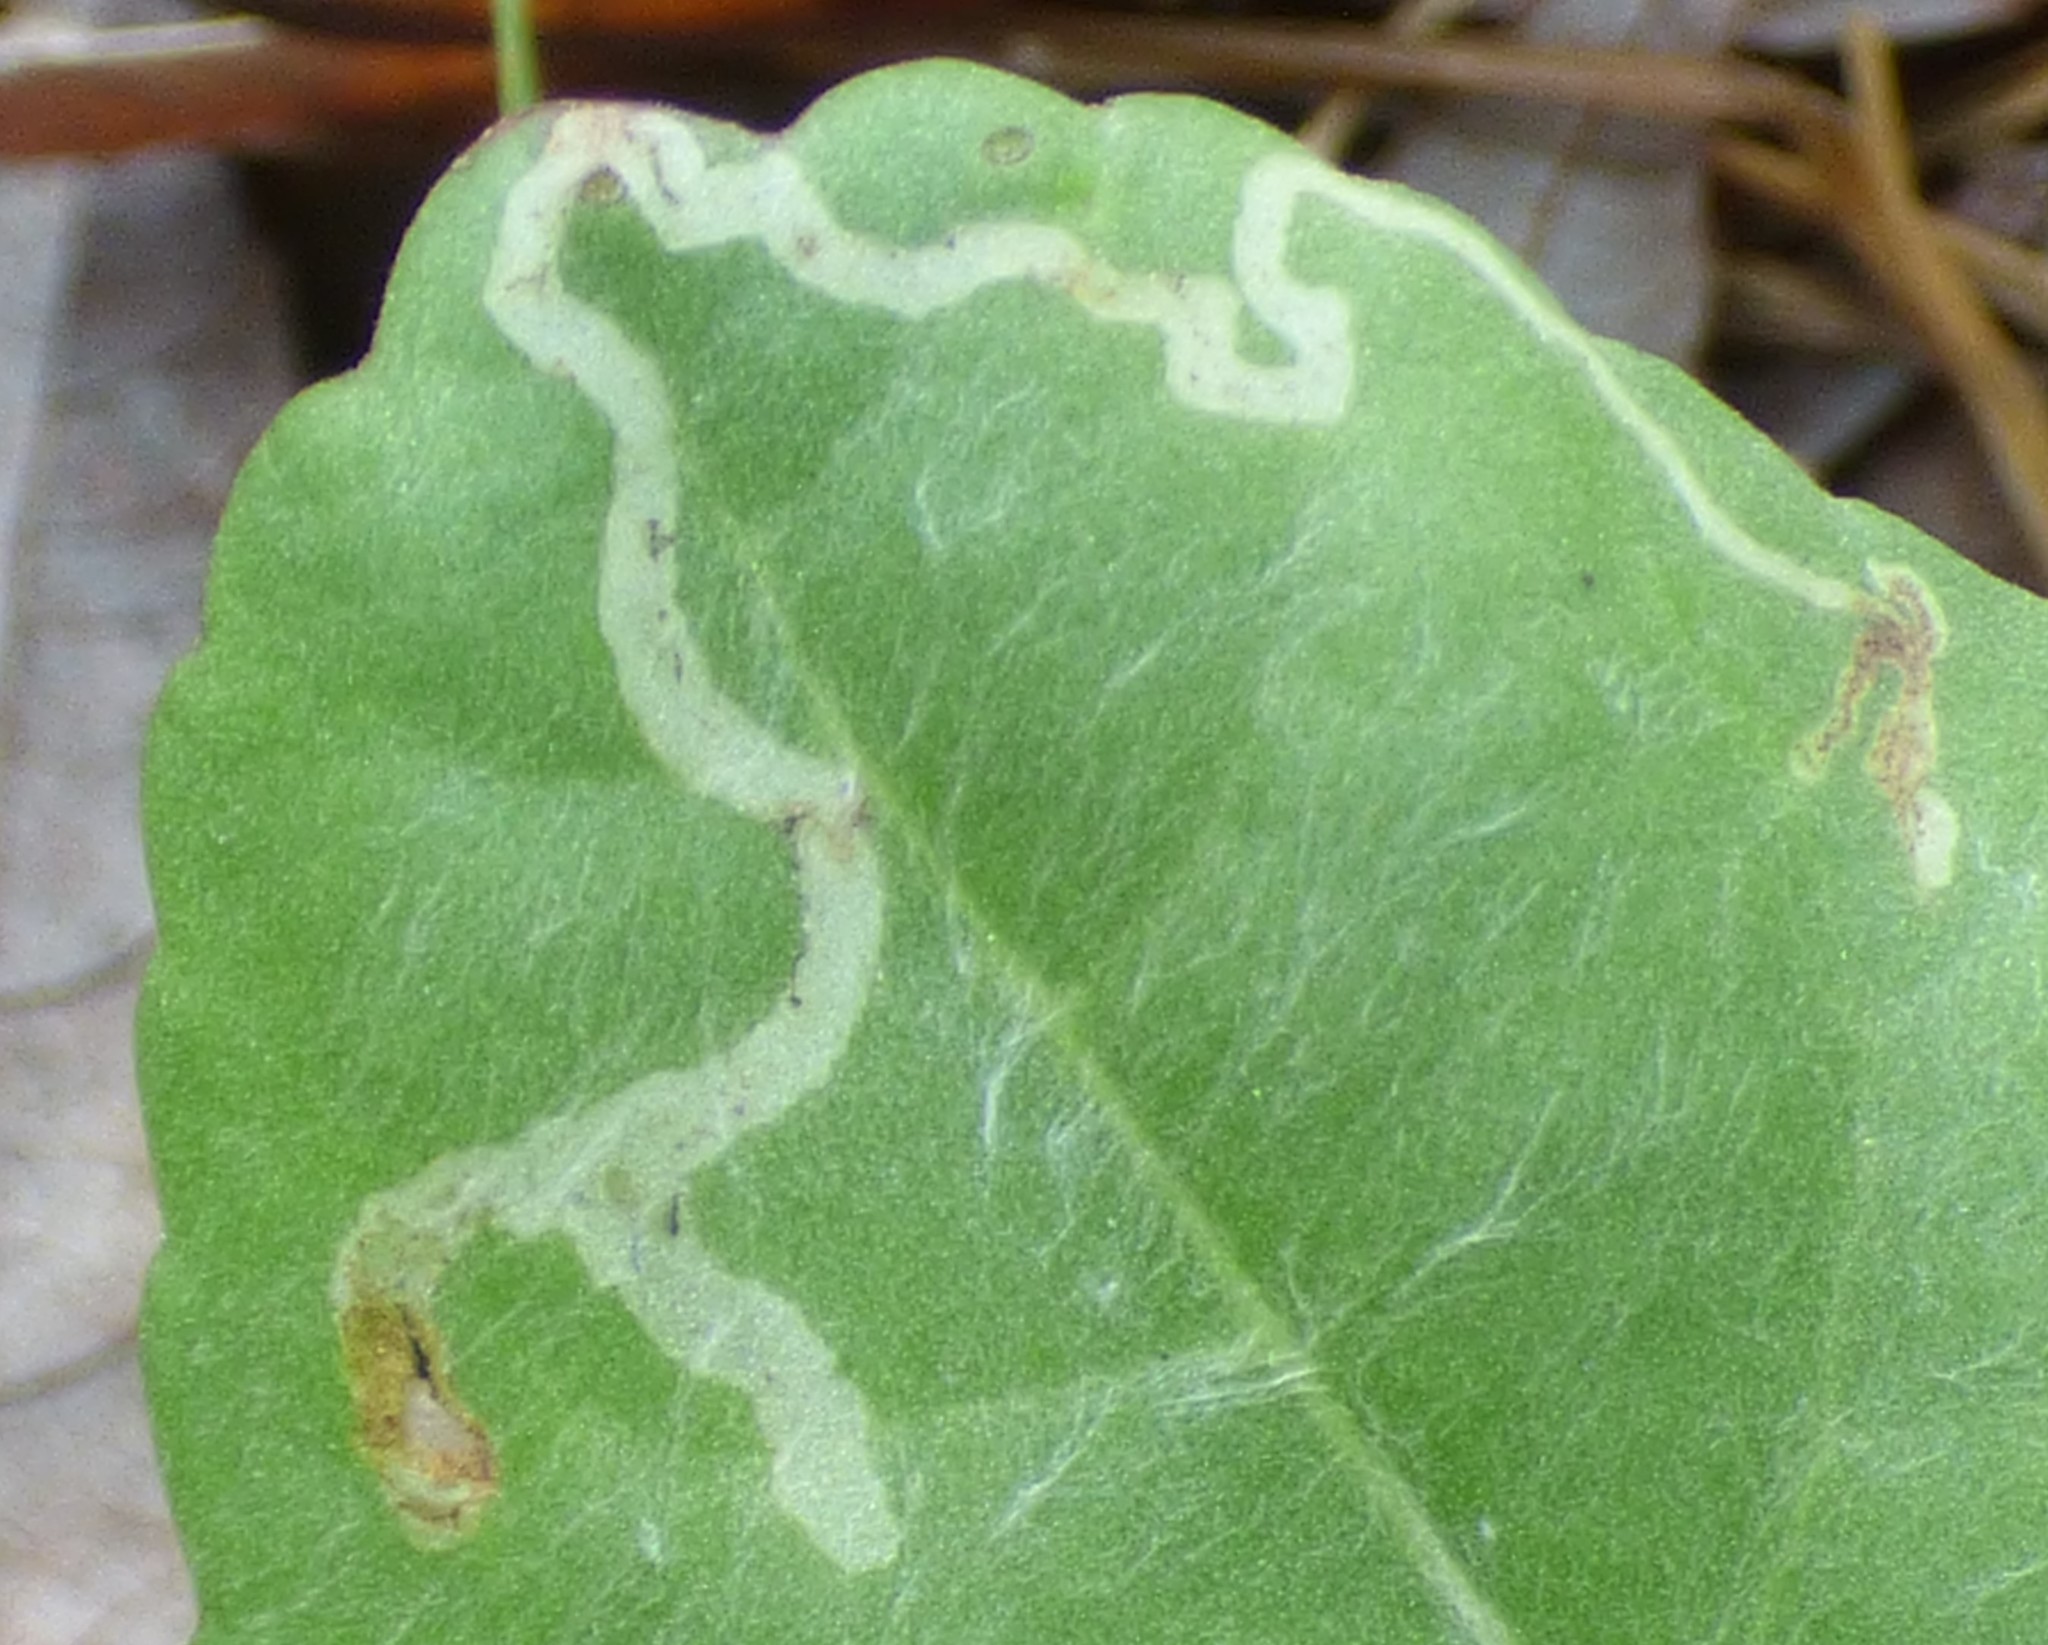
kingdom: Animalia
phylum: Arthropoda
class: Insecta
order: Lepidoptera
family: Gracillariidae
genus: Phyllocnistis
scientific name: Phyllocnistis insignis
